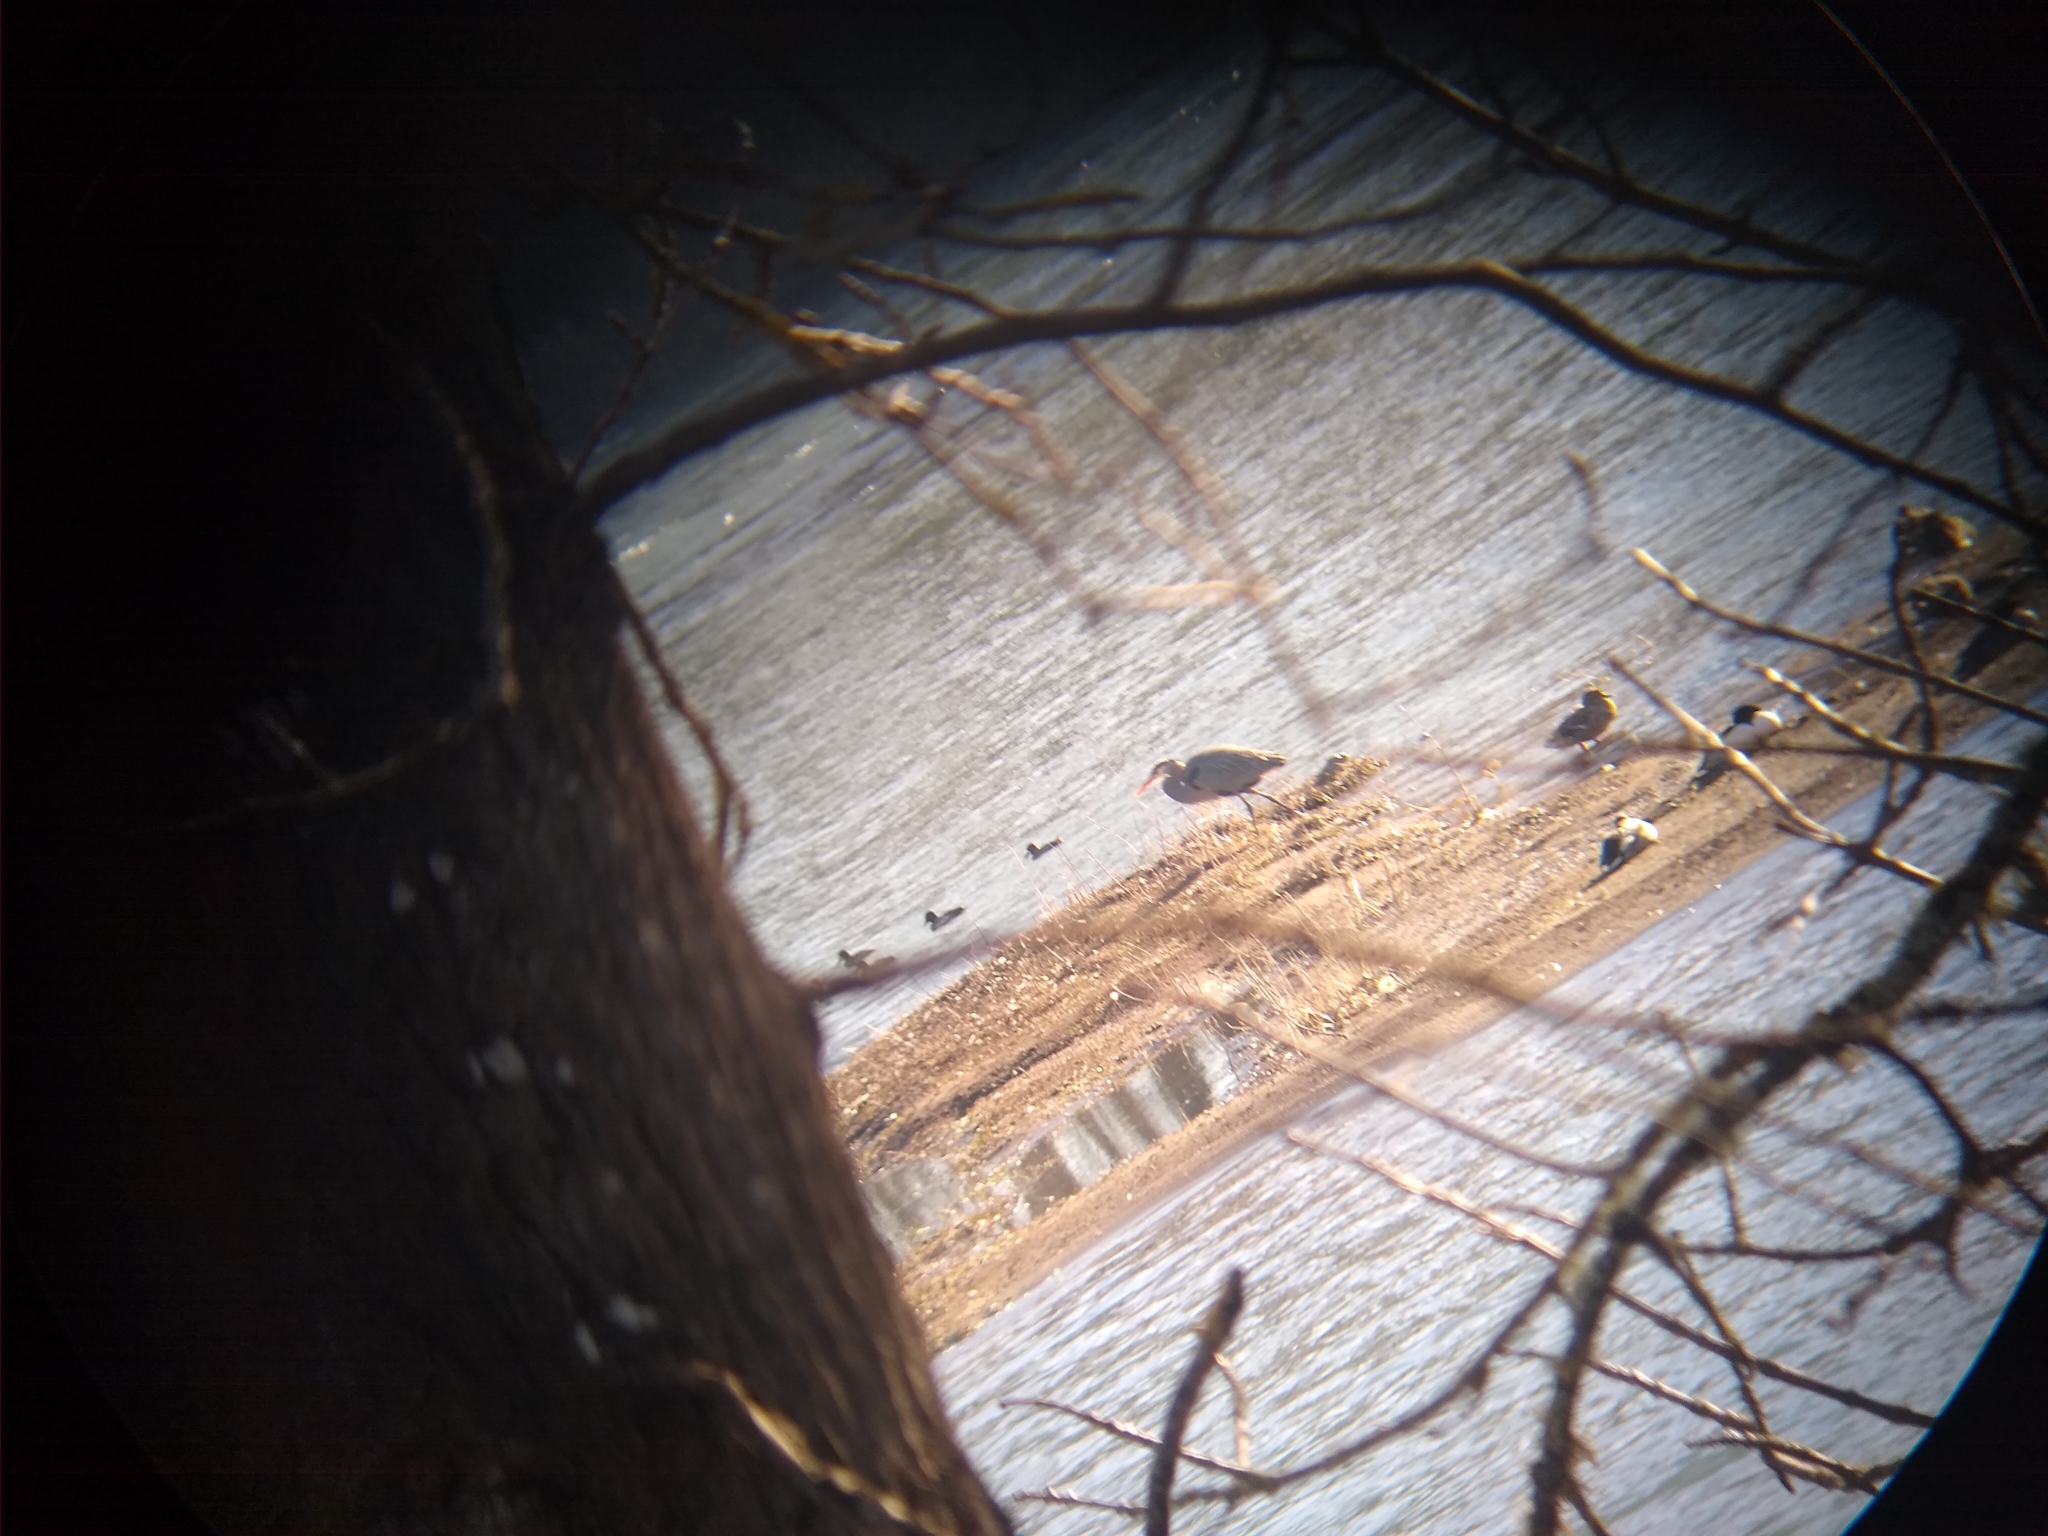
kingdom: Animalia
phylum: Chordata
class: Aves
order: Pelecaniformes
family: Ardeidae
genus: Ardea
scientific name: Ardea herodias
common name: Great blue heron
